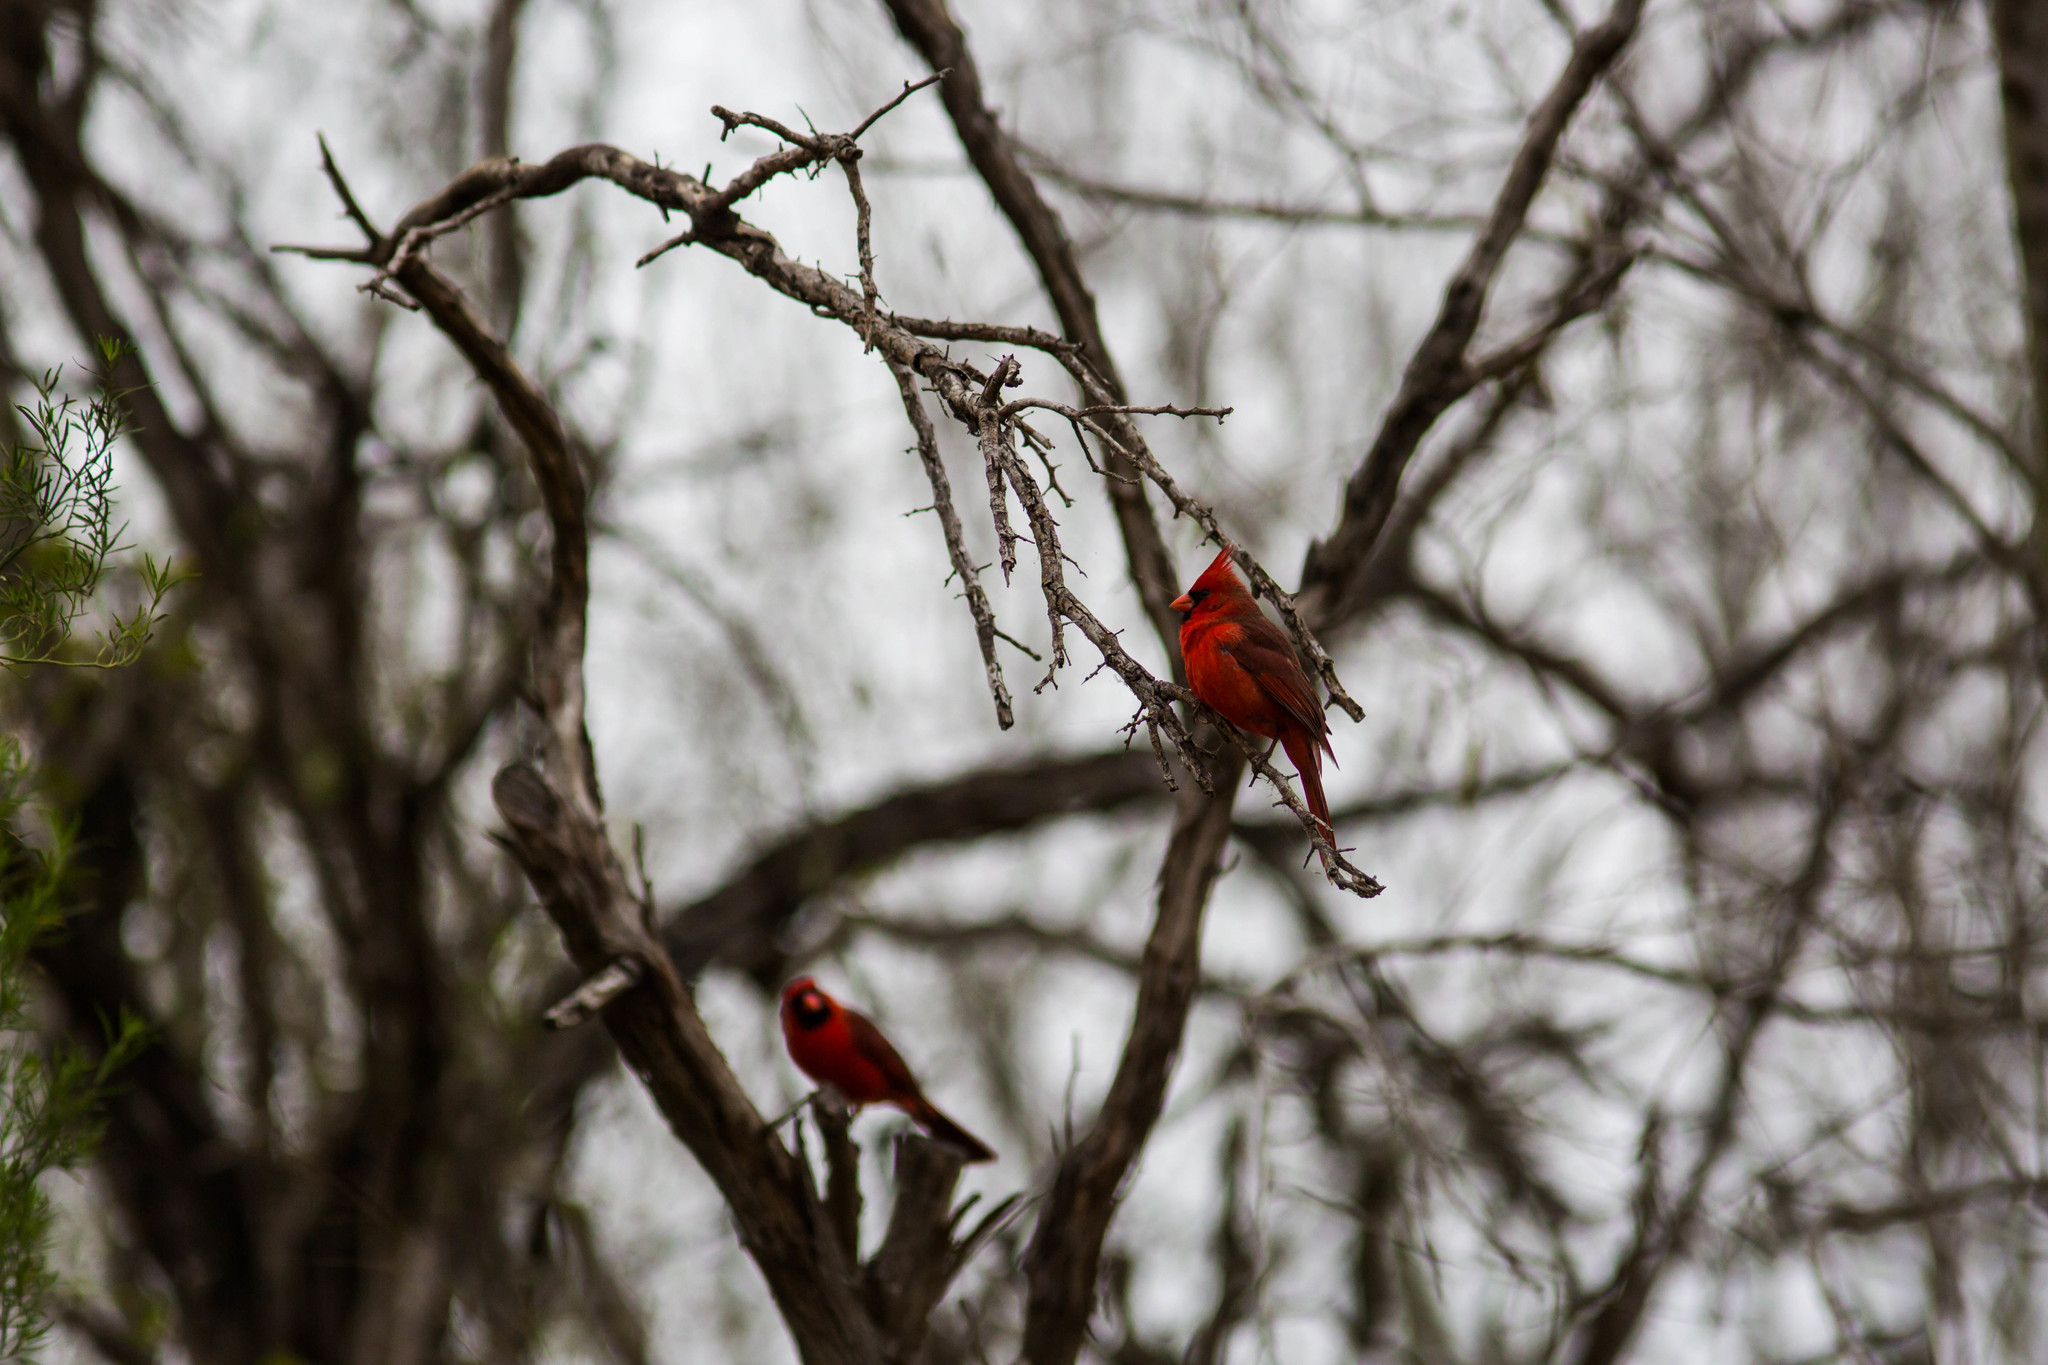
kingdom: Animalia
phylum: Chordata
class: Aves
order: Passeriformes
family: Cardinalidae
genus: Cardinalis
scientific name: Cardinalis cardinalis
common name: Northern cardinal
